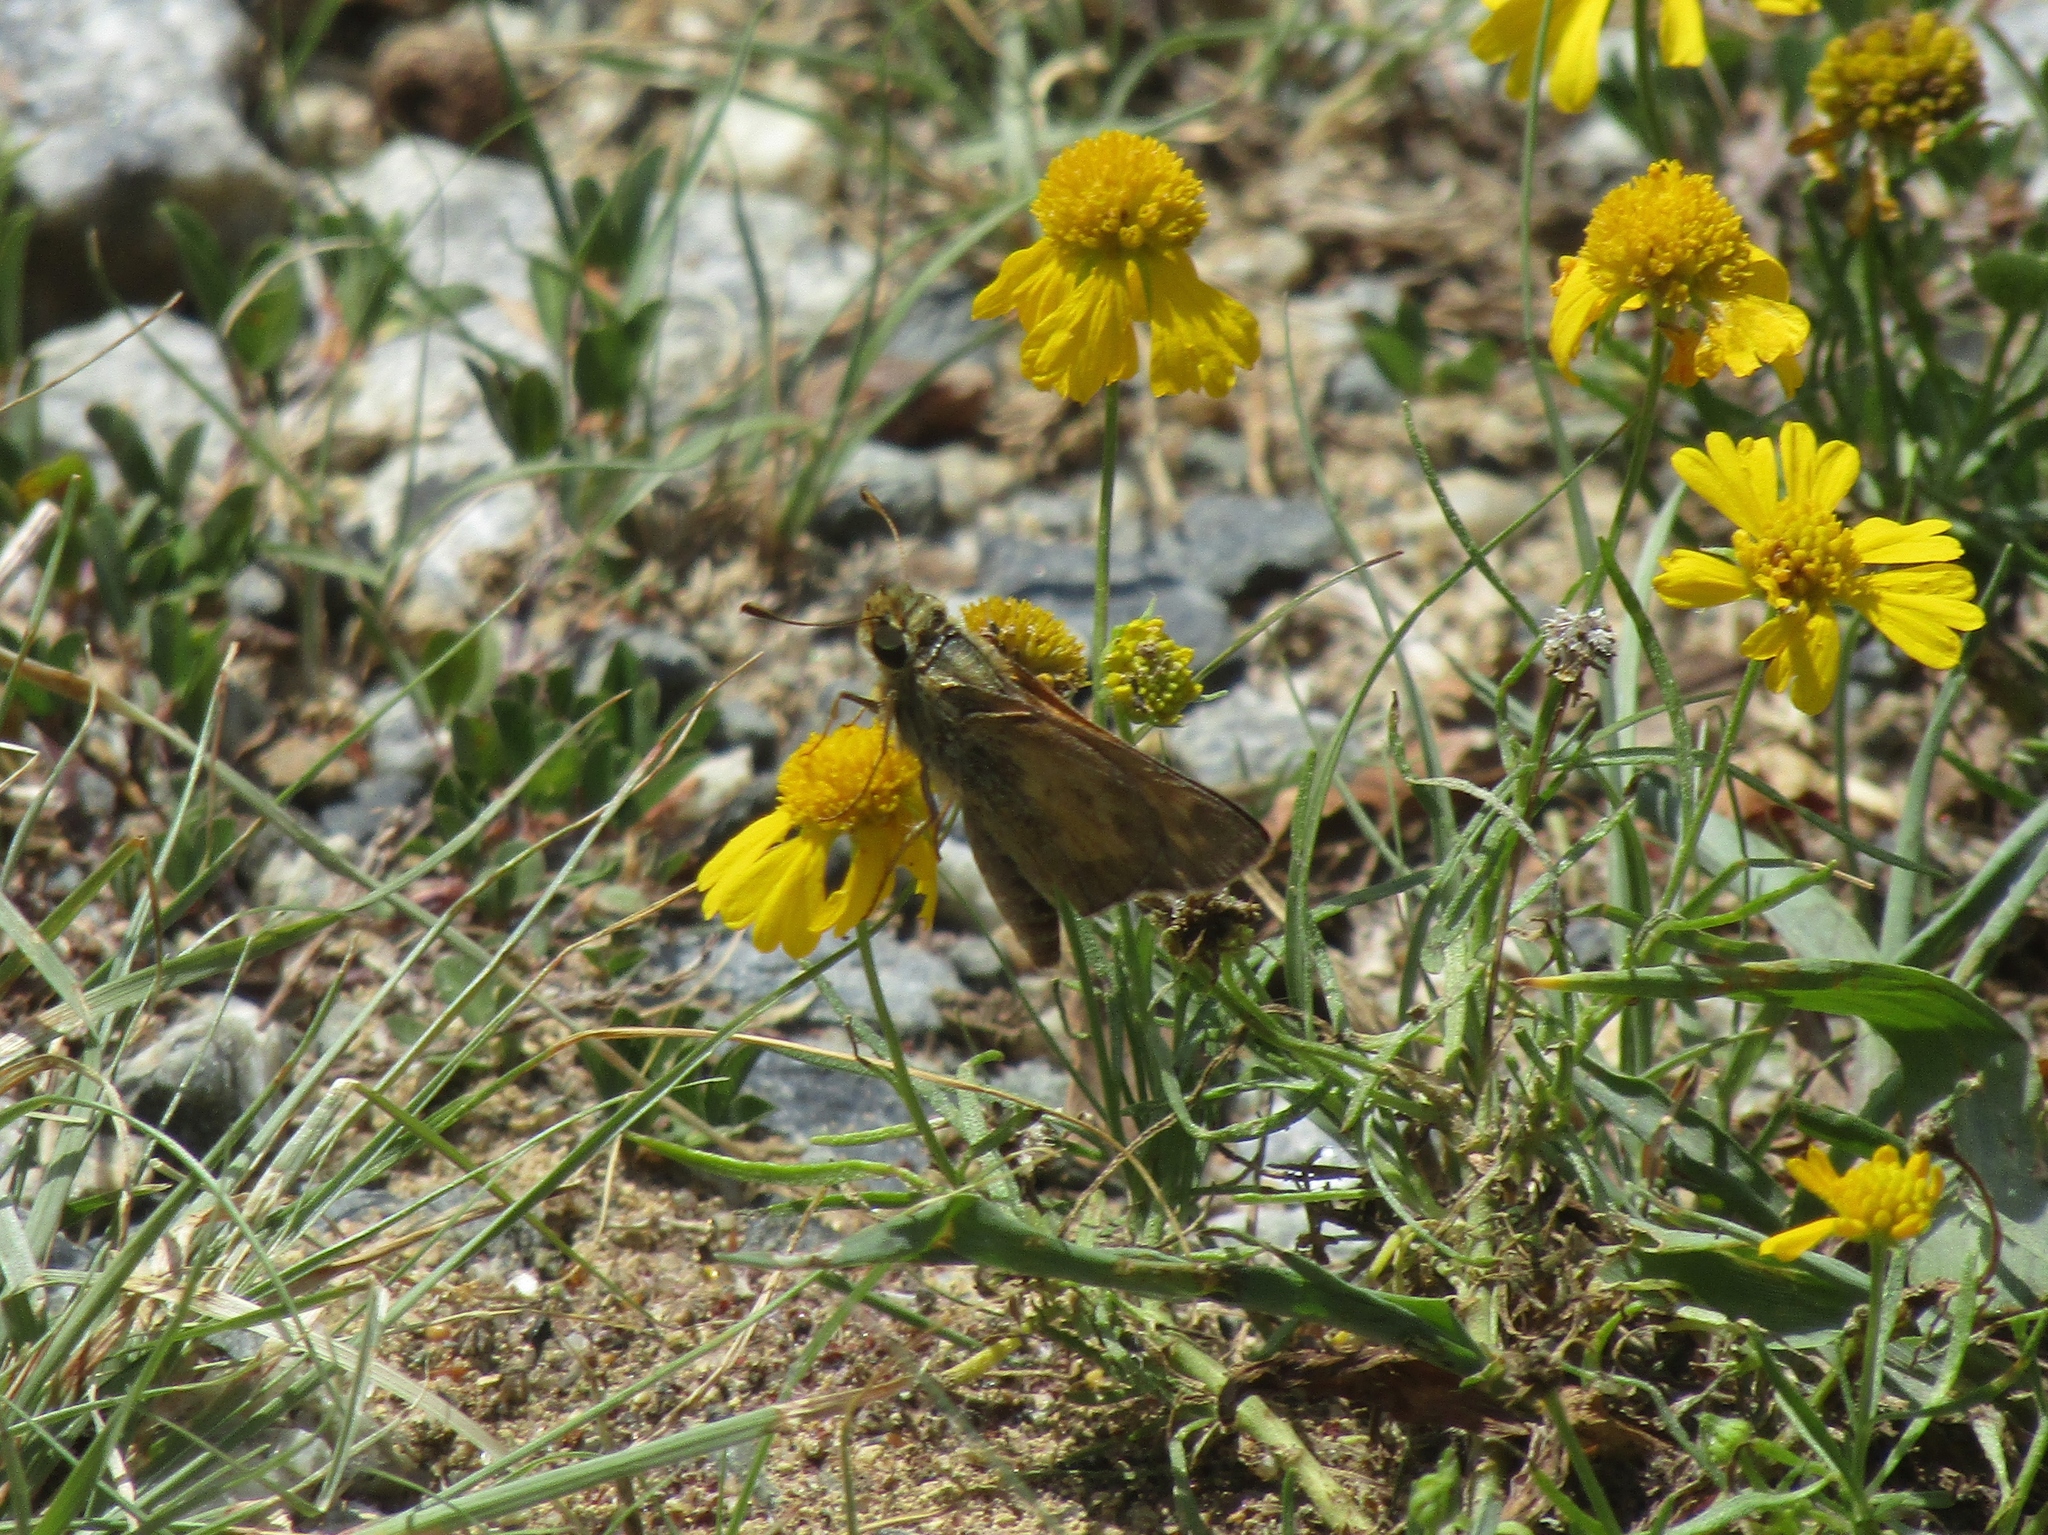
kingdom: Animalia
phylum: Arthropoda
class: Insecta
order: Lepidoptera
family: Hesperiidae
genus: Atalopedes
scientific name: Atalopedes
